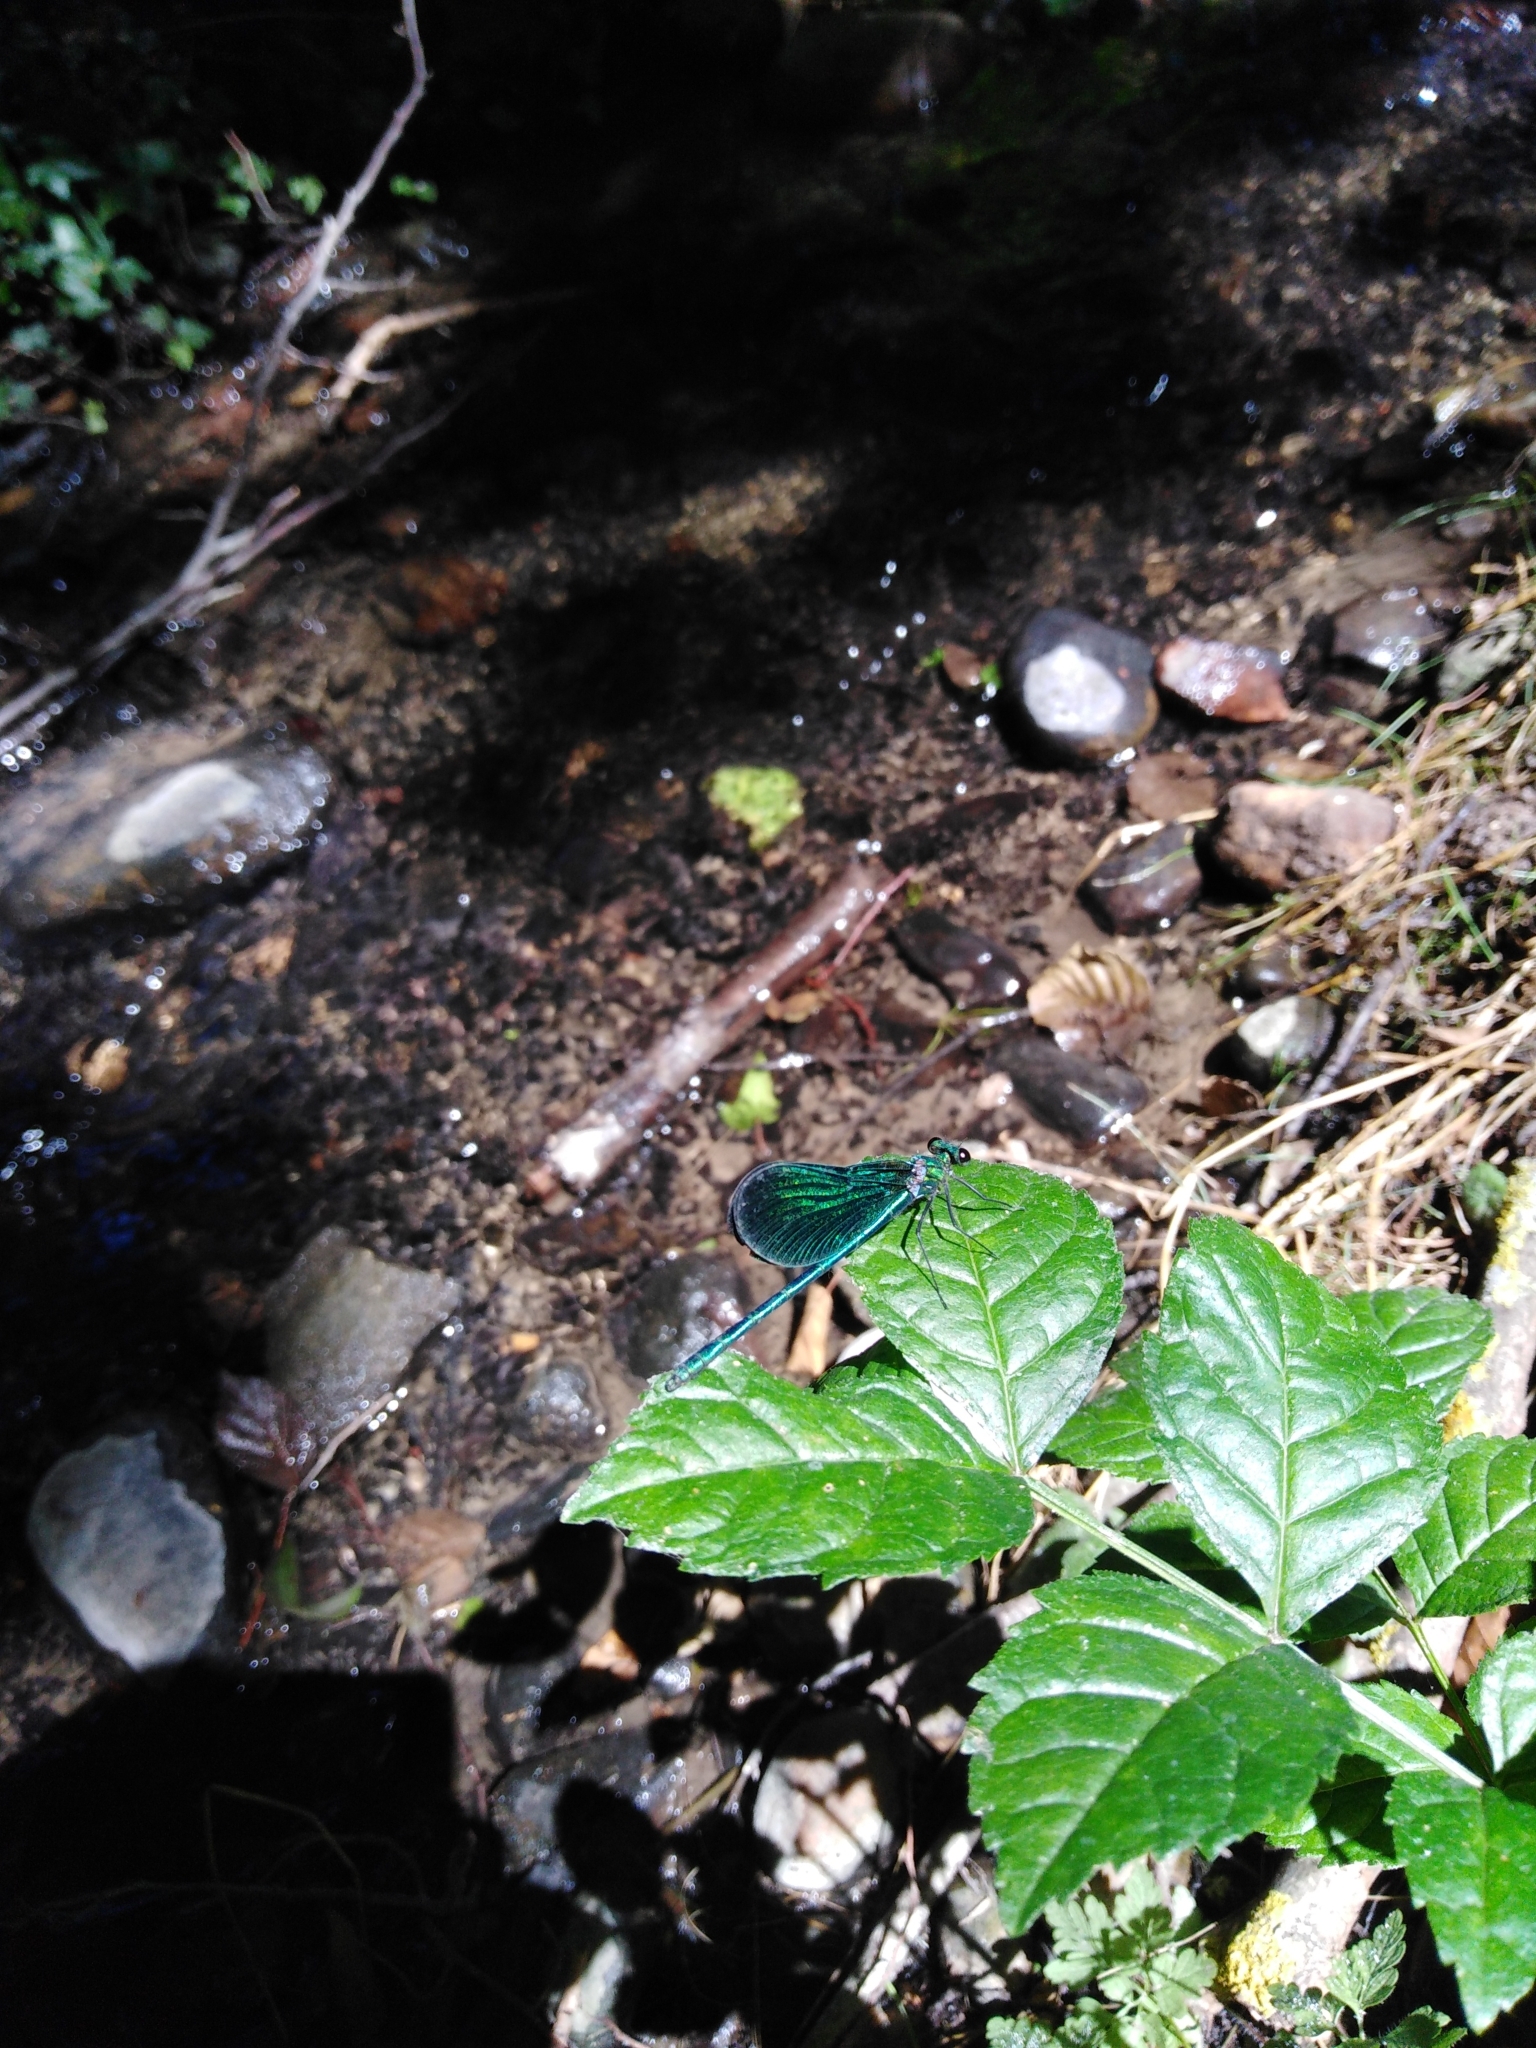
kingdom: Animalia
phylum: Arthropoda
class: Insecta
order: Odonata
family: Calopterygidae
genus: Calopteryx
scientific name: Calopteryx virgo
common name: Beautiful demoiselle
